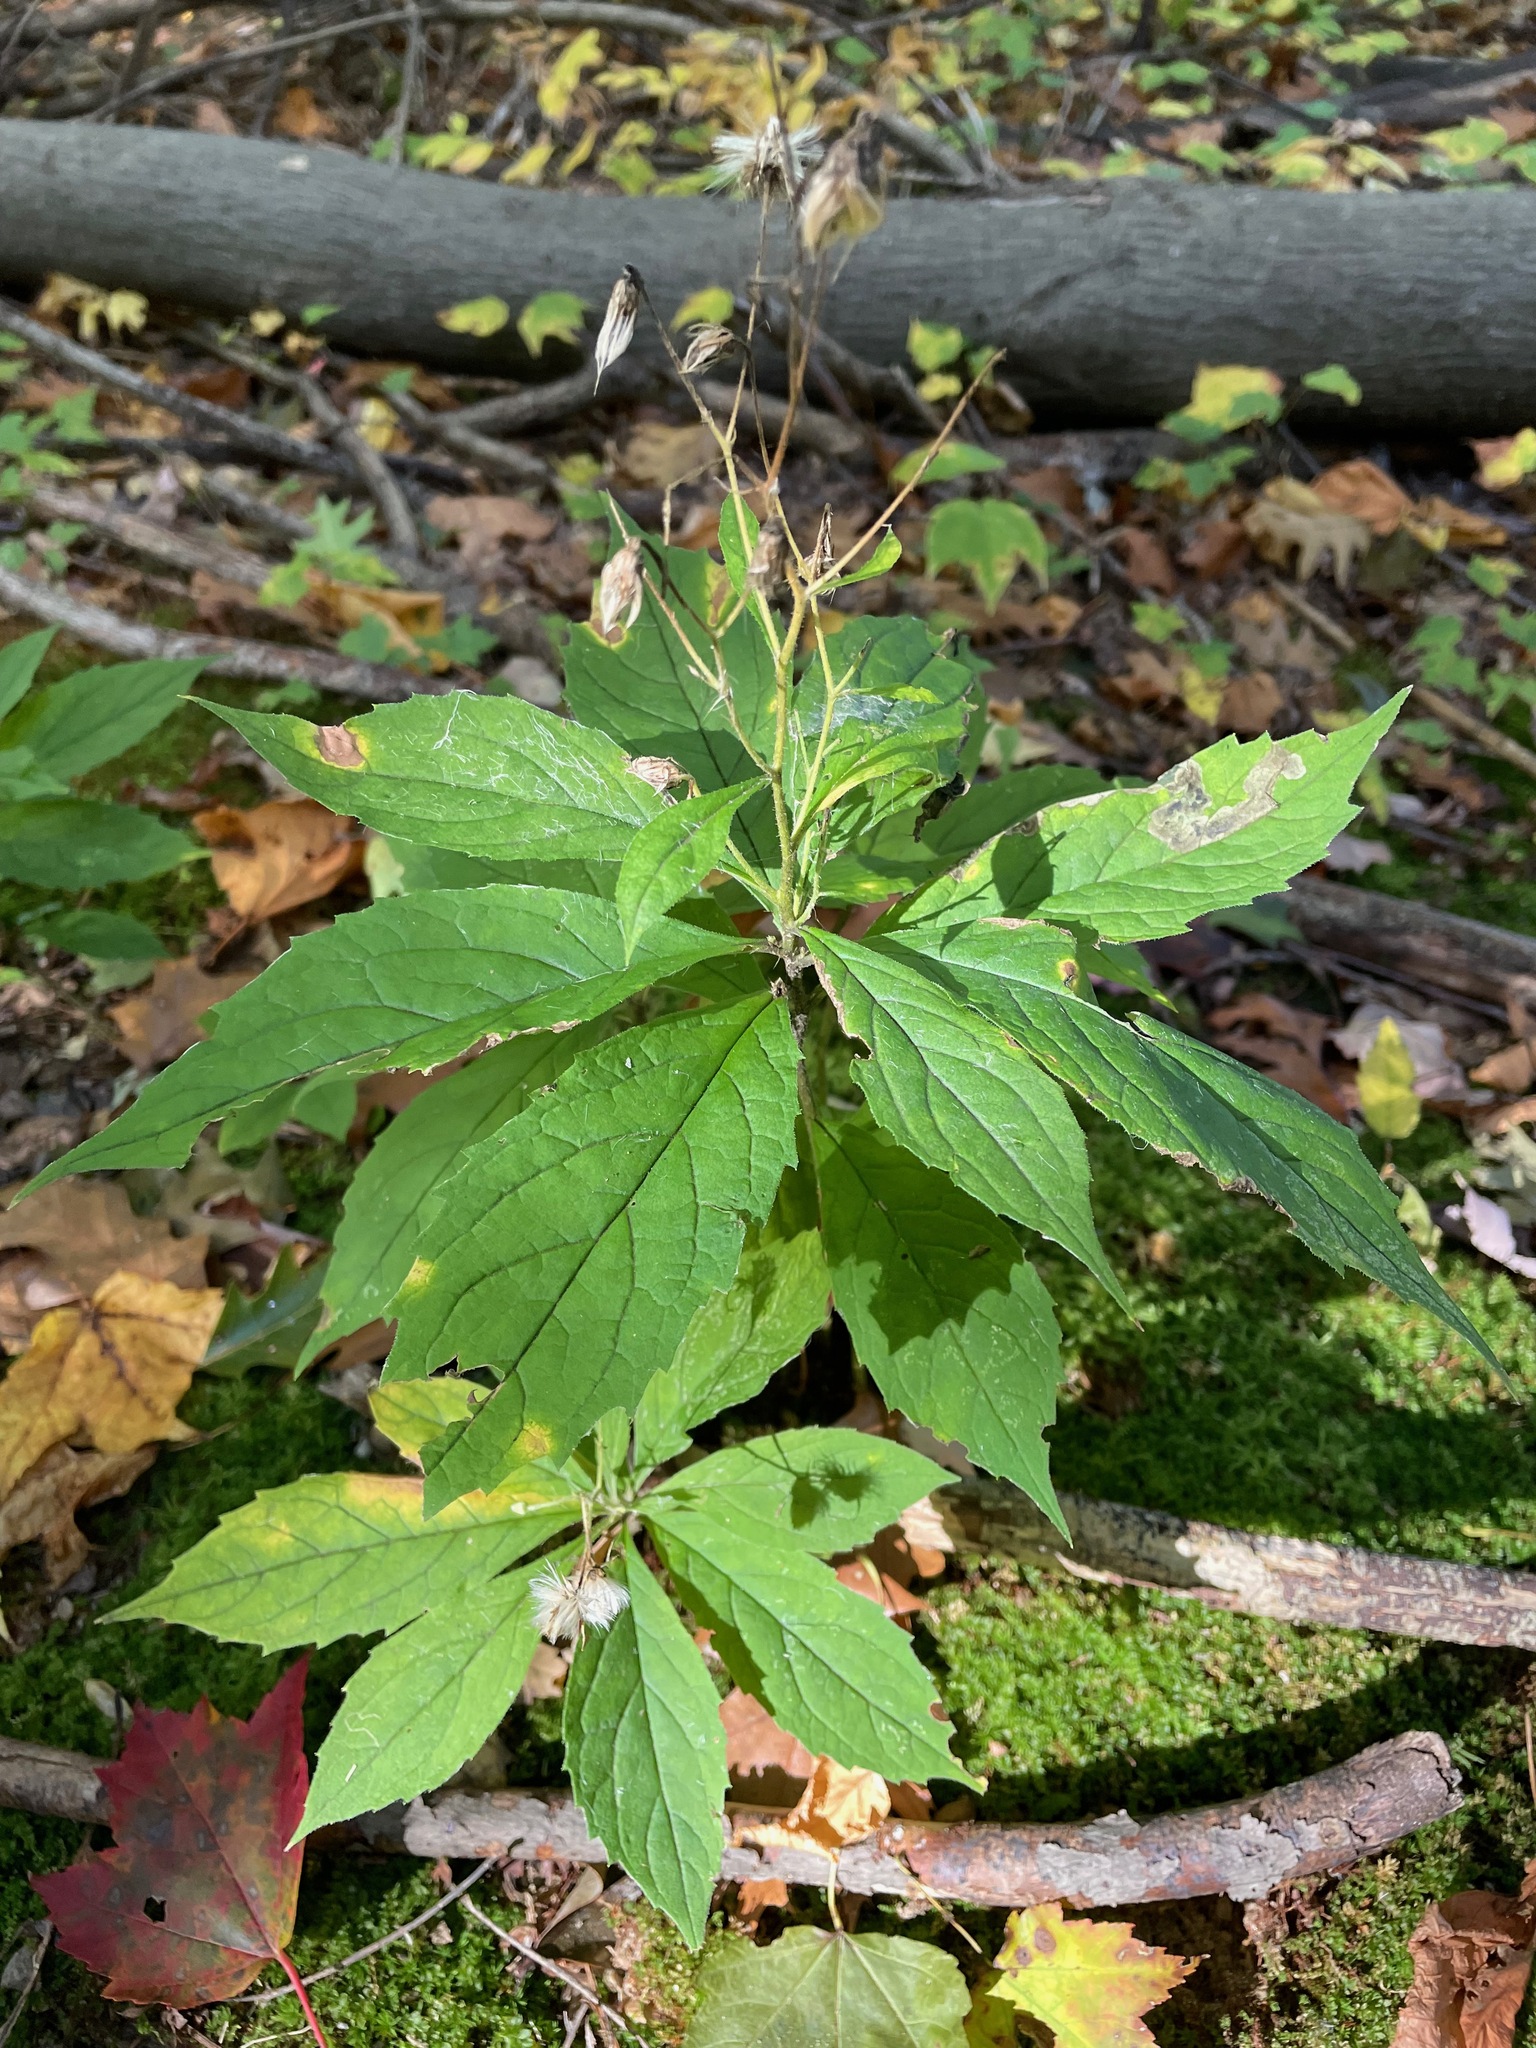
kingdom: Plantae
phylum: Tracheophyta
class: Magnoliopsida
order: Asterales
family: Asteraceae
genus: Oclemena
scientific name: Oclemena acuminata
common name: Mountain aster
